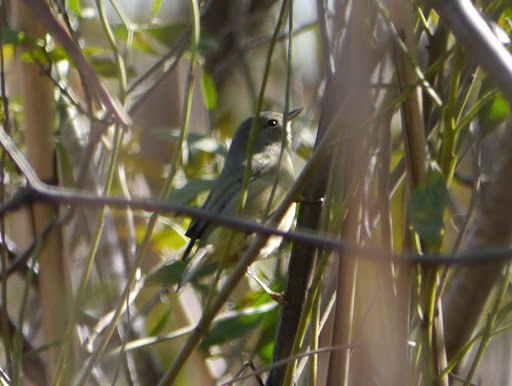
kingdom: Animalia
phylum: Chordata
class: Aves
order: Passeriformes
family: Parulidae
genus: Leiothlypis
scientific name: Leiothlypis celata
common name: Orange-crowned warbler
